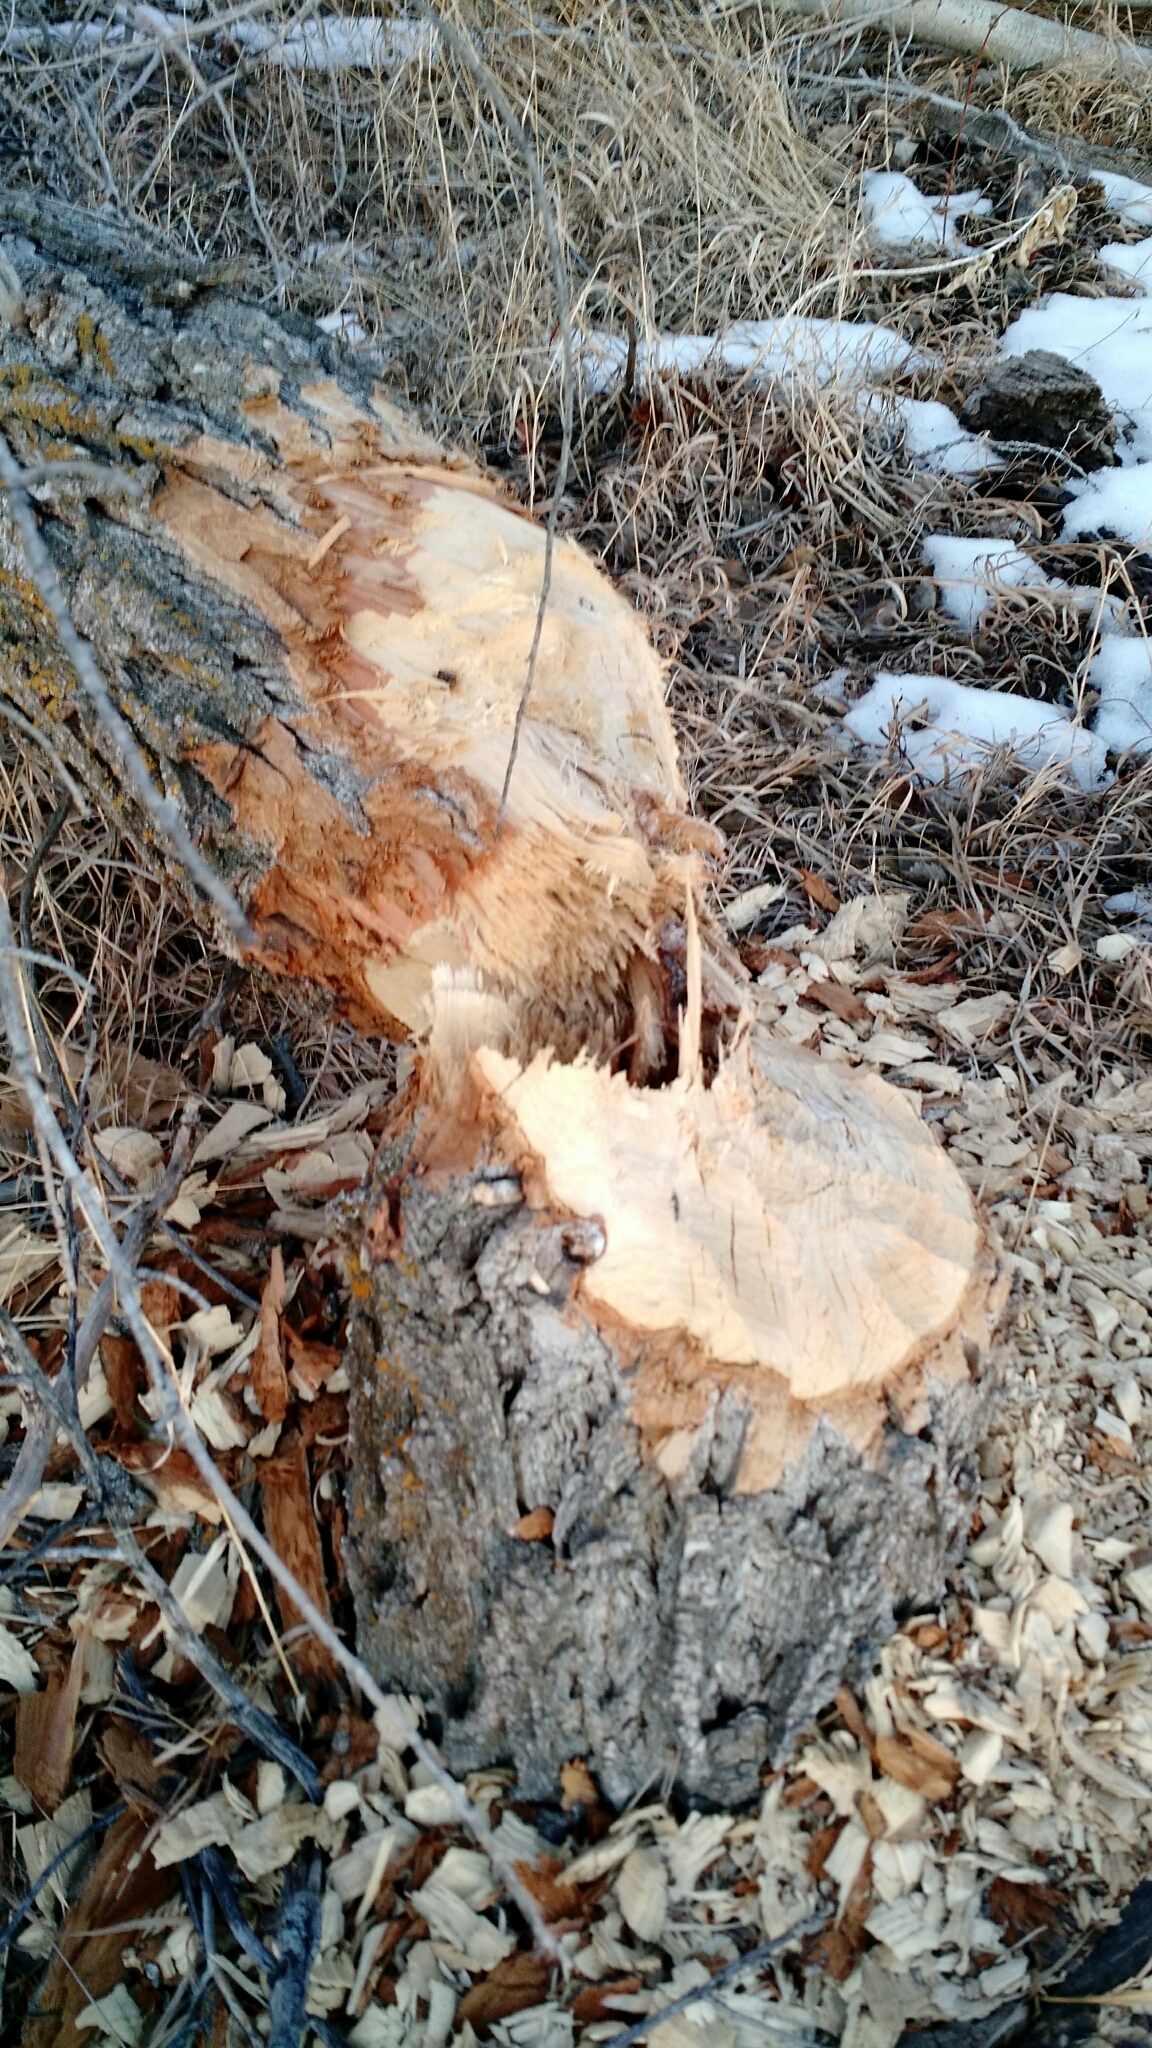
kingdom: Animalia
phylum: Chordata
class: Mammalia
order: Rodentia
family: Castoridae
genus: Castor
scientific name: Castor canadensis
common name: American beaver
